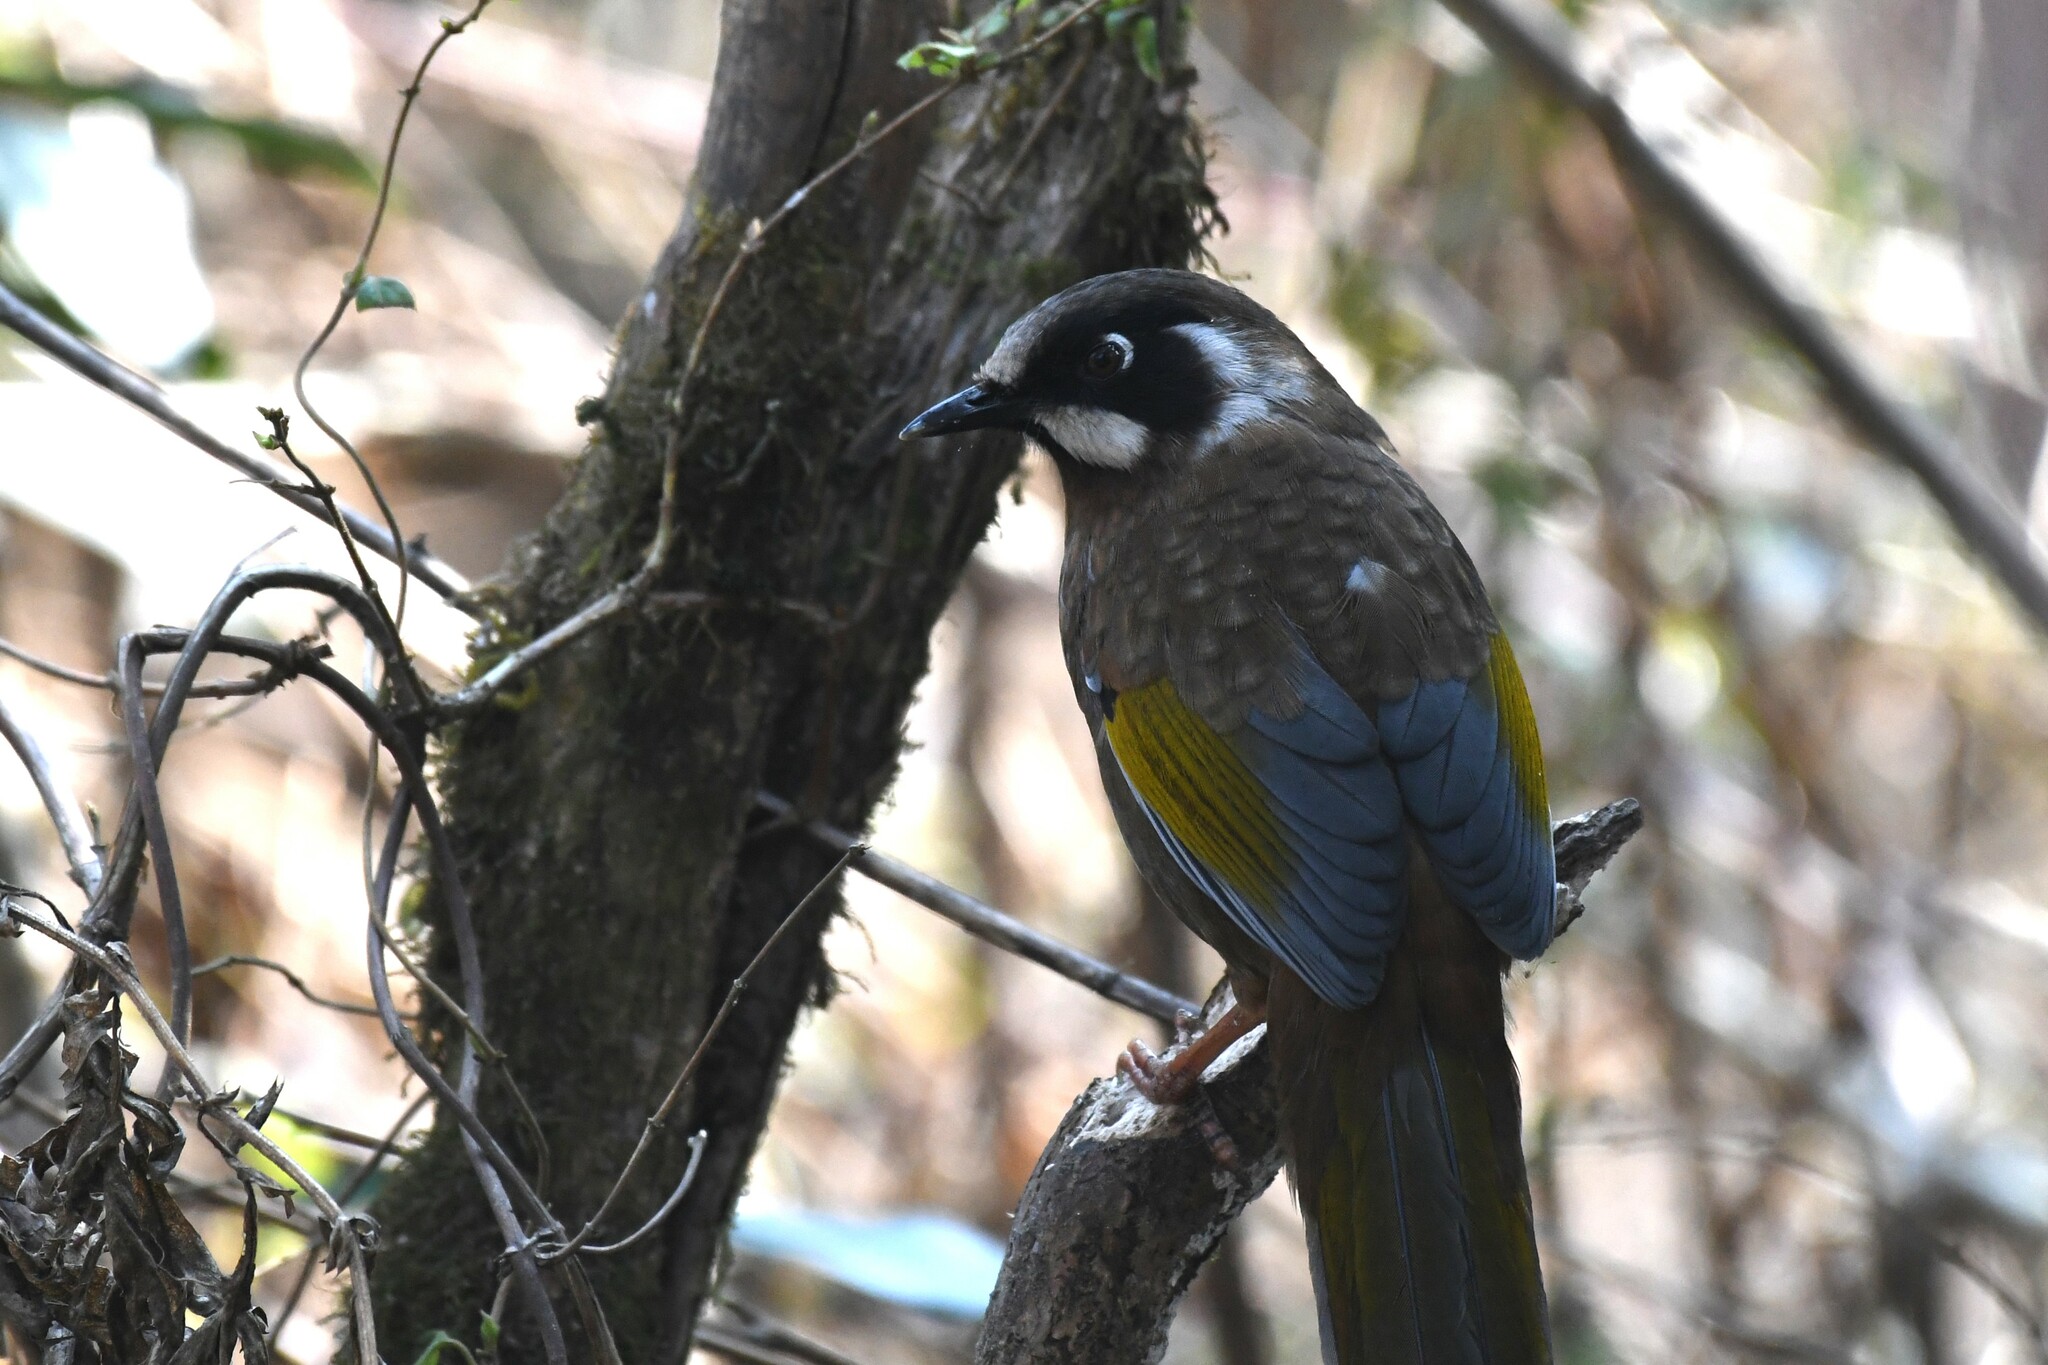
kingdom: Animalia
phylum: Chordata
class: Aves
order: Passeriformes
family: Leiothrichidae
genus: Trochalopteron
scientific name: Trochalopteron affine
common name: Black-faced laughingthrush
